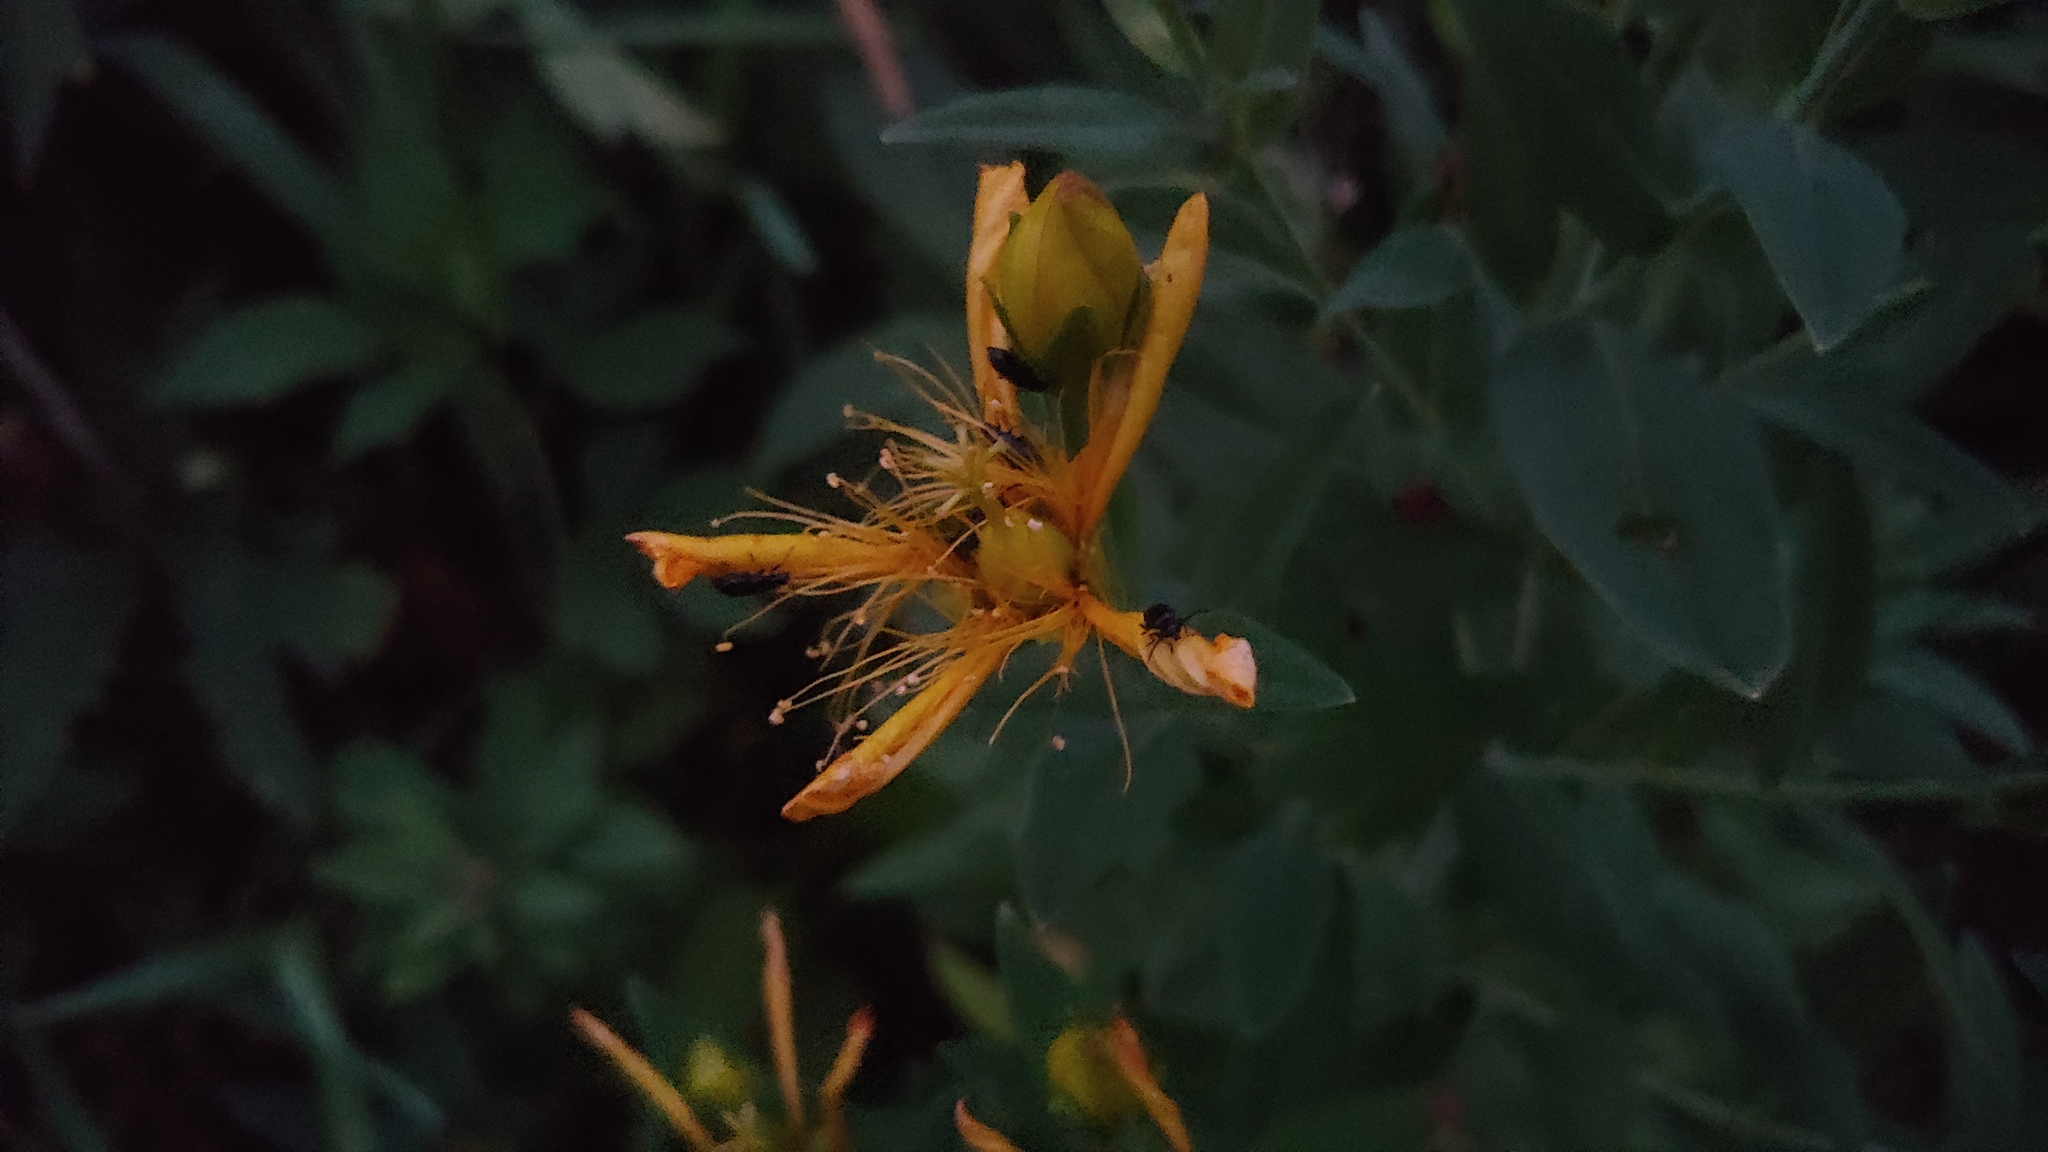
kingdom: Plantae
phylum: Tracheophyta
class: Magnoliopsida
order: Malpighiales
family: Hypericaceae
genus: Hypericum
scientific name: Hypericum ascyron
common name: Giant st. john's-wort
